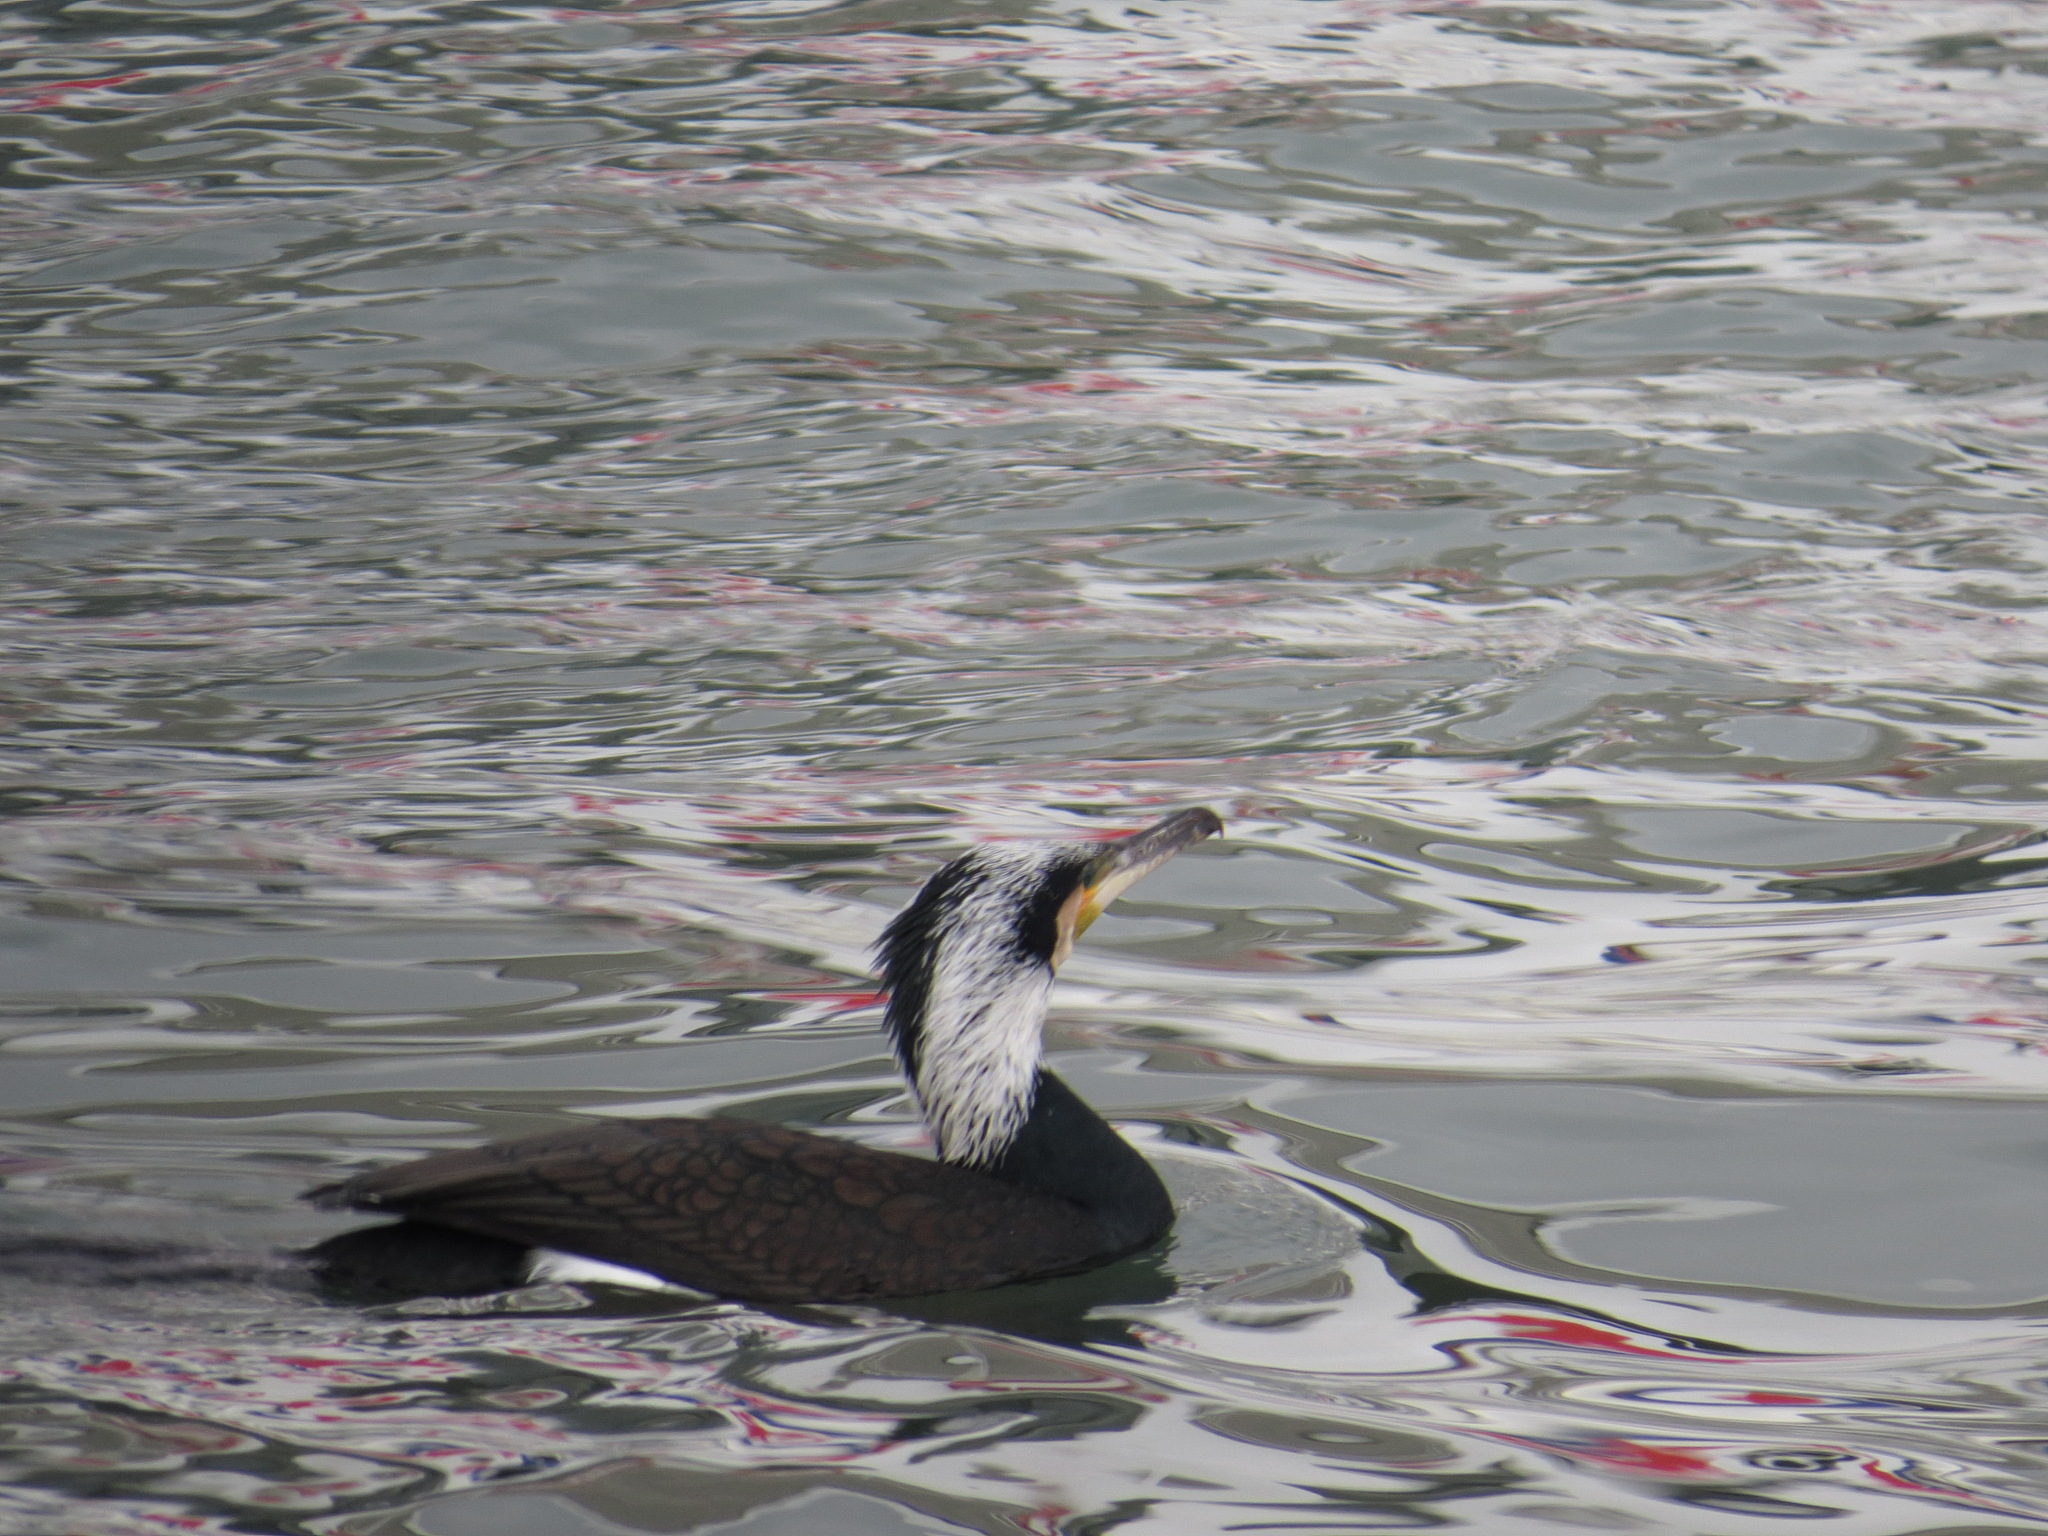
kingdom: Animalia
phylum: Chordata
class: Aves
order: Suliformes
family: Phalacrocoracidae
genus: Phalacrocorax
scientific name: Phalacrocorax carbo
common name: Great cormorant
